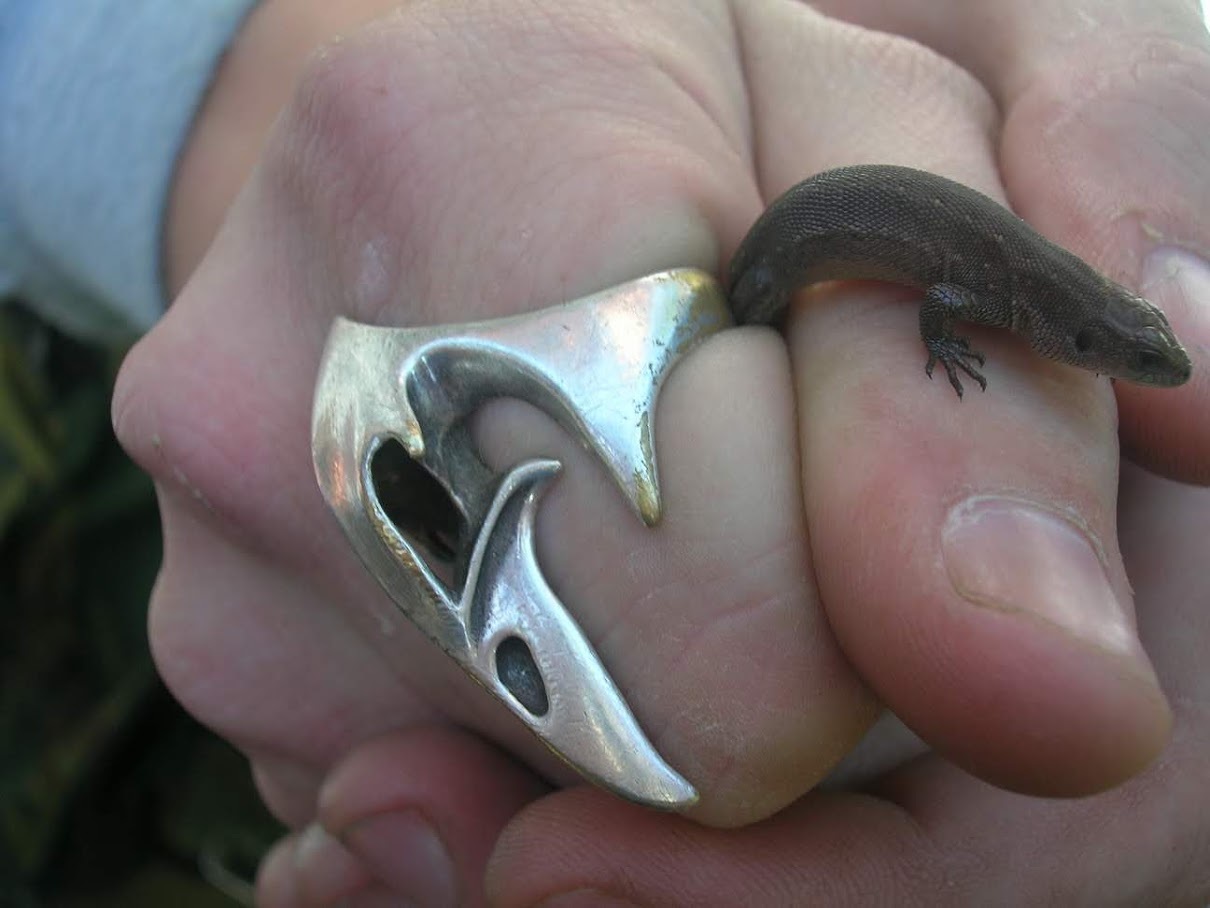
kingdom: Animalia
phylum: Chordata
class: Squamata
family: Lacertidae
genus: Zootoca
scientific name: Zootoca vivipara
